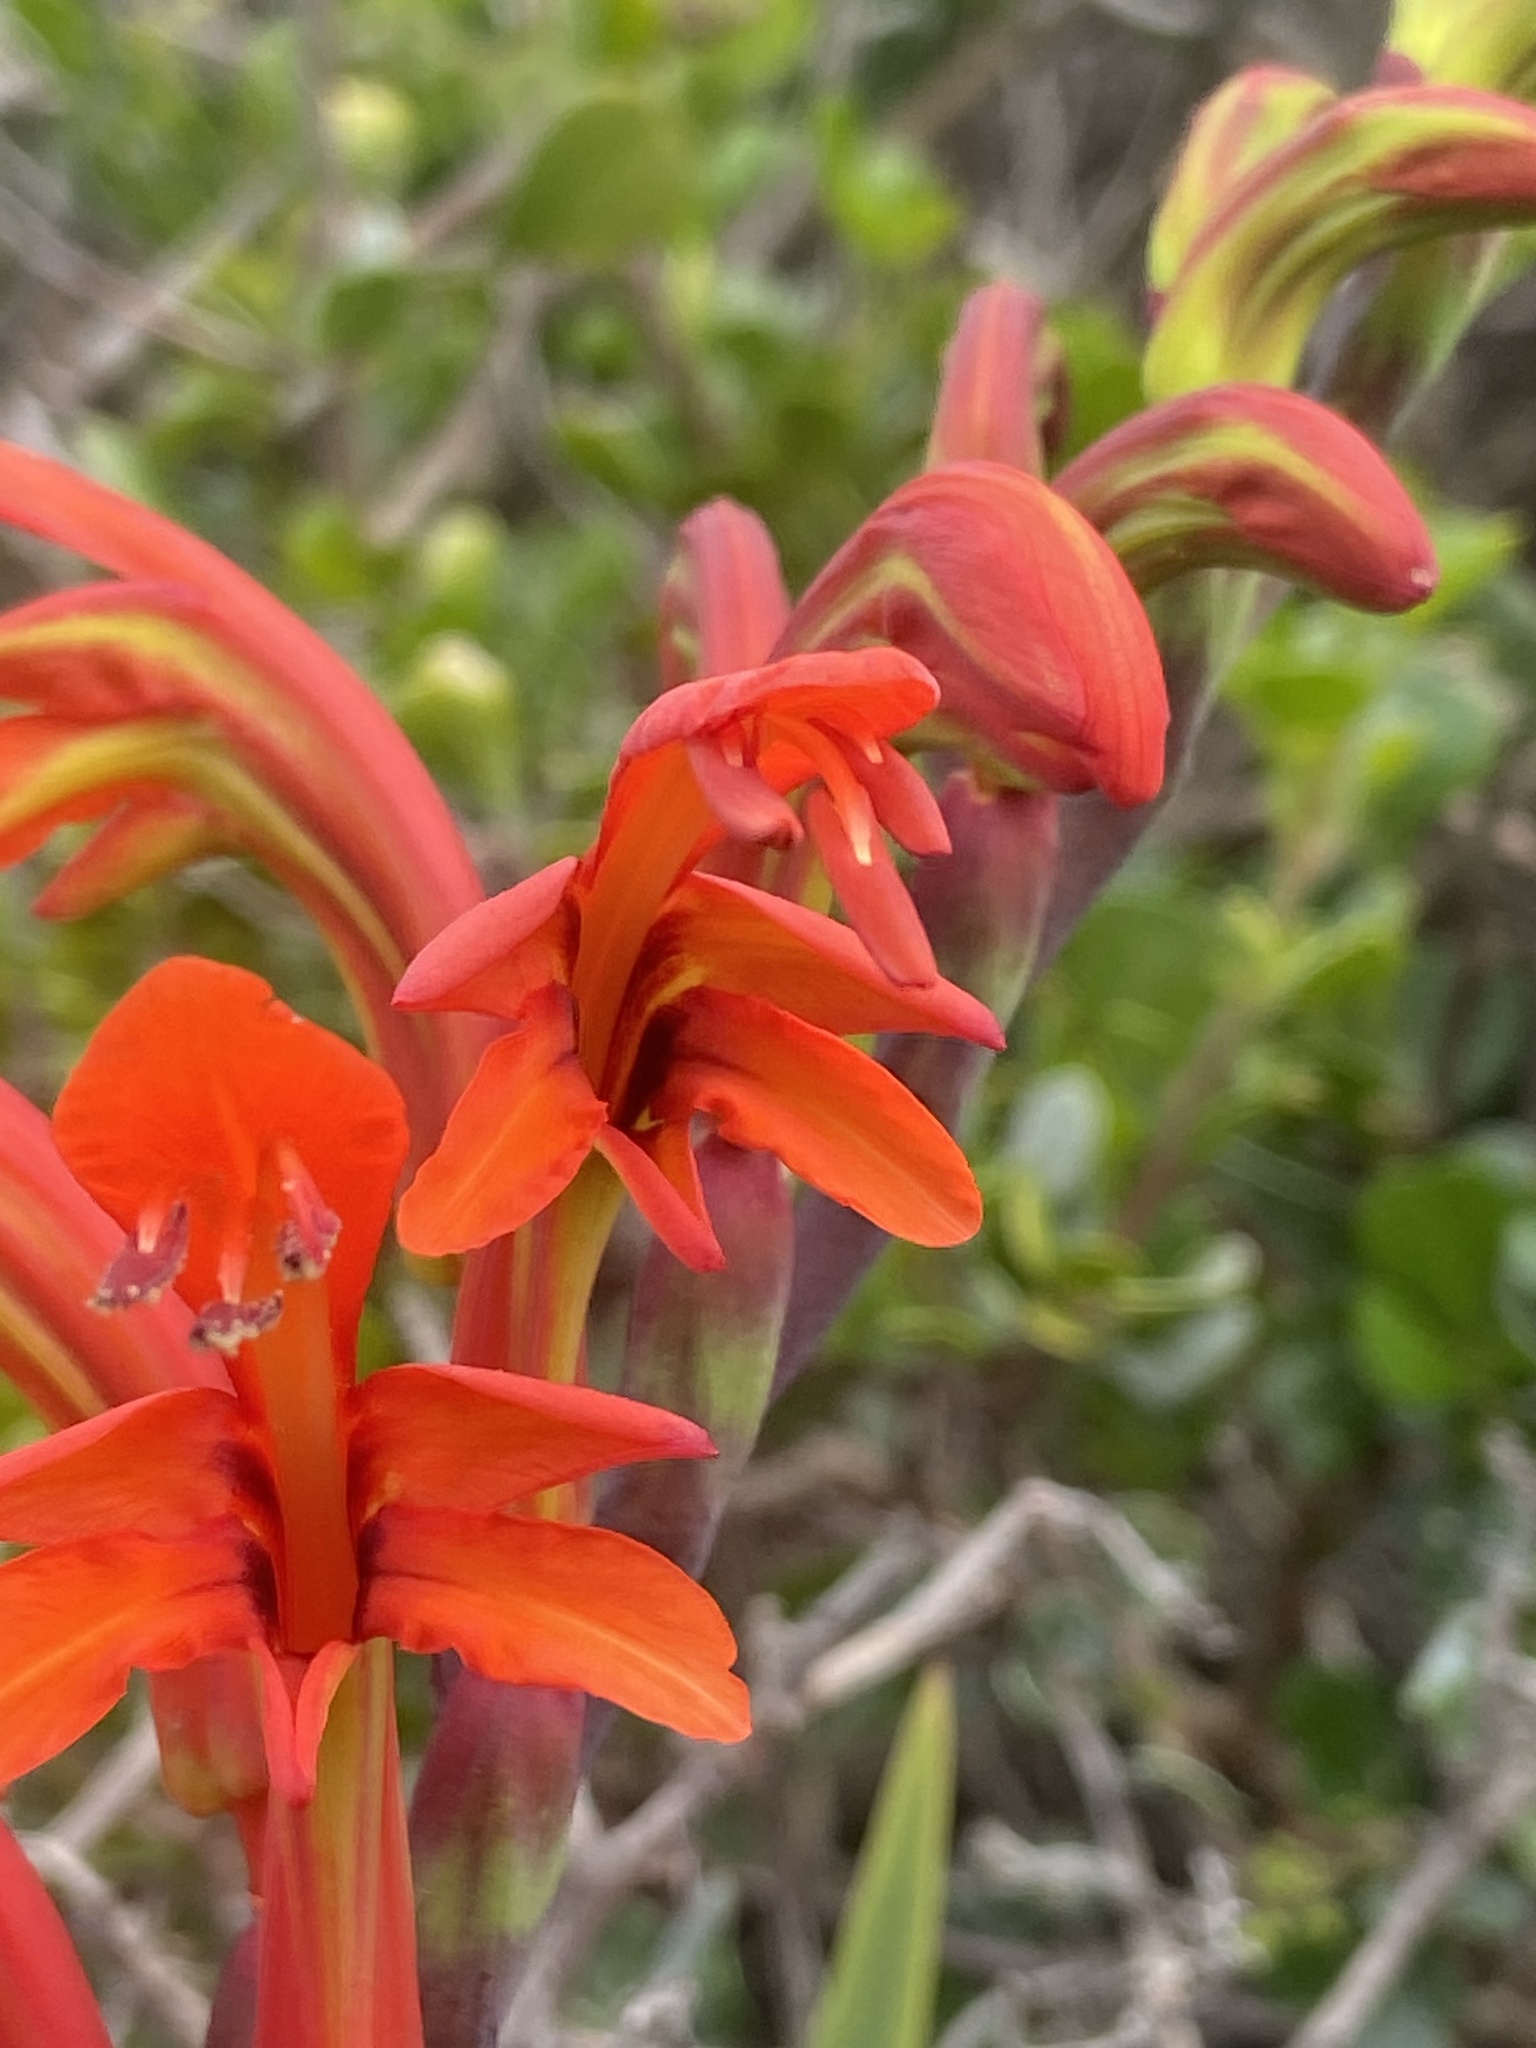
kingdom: Plantae
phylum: Tracheophyta
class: Liliopsida
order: Asparagales
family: Iridaceae
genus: Chasmanthe
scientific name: Chasmanthe aethiopica
